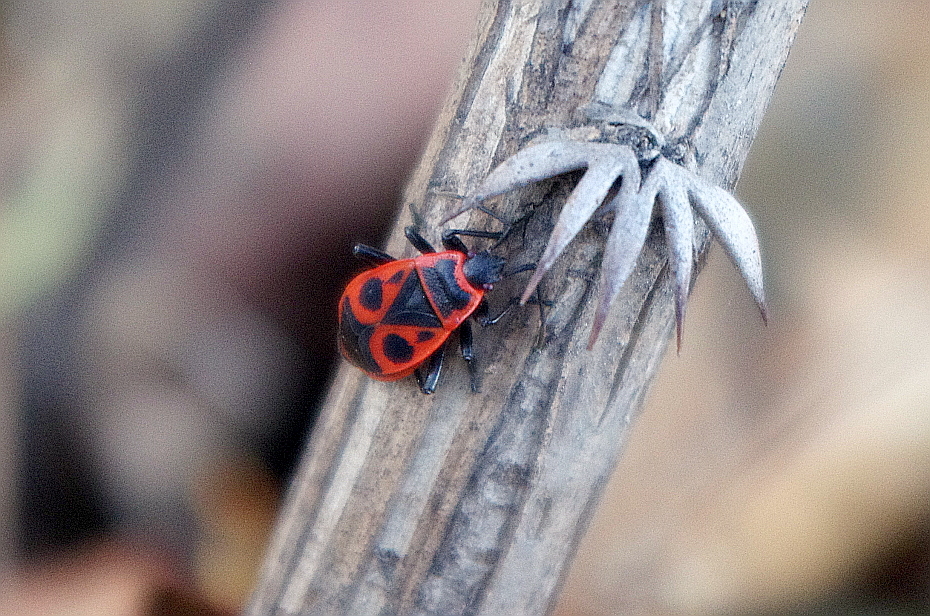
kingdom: Animalia
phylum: Arthropoda
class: Insecta
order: Hemiptera
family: Pyrrhocoridae
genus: Pyrrhocoris
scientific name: Pyrrhocoris apterus
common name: Firebug
